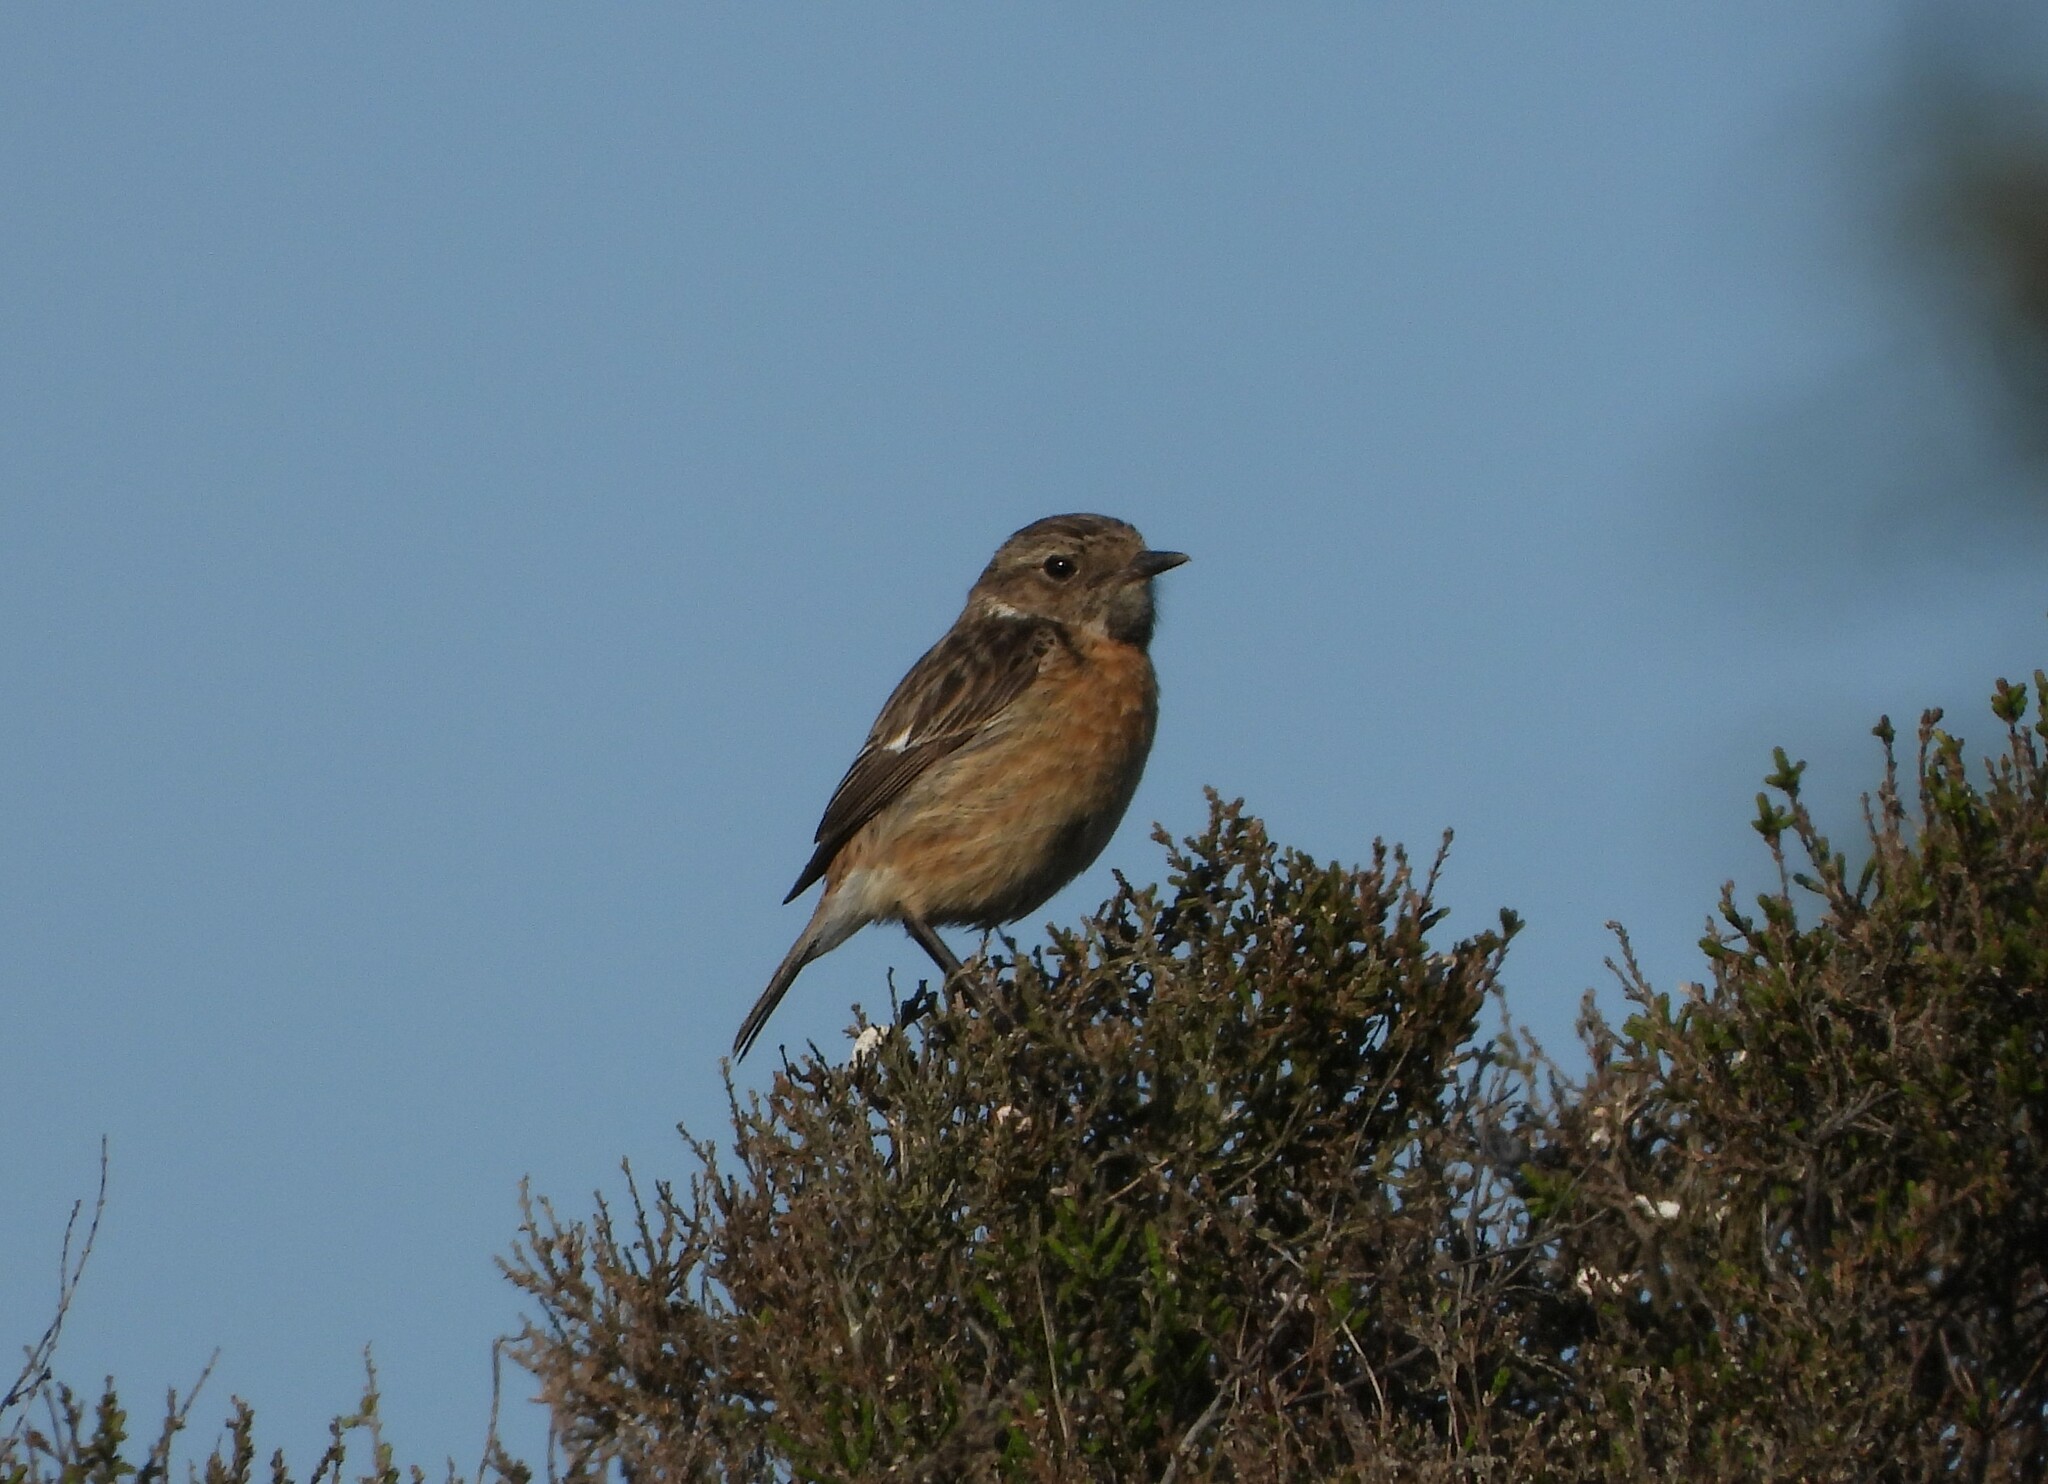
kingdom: Animalia
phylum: Chordata
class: Aves
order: Passeriformes
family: Muscicapidae
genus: Saxicola
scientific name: Saxicola rubicola
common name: European stonechat
